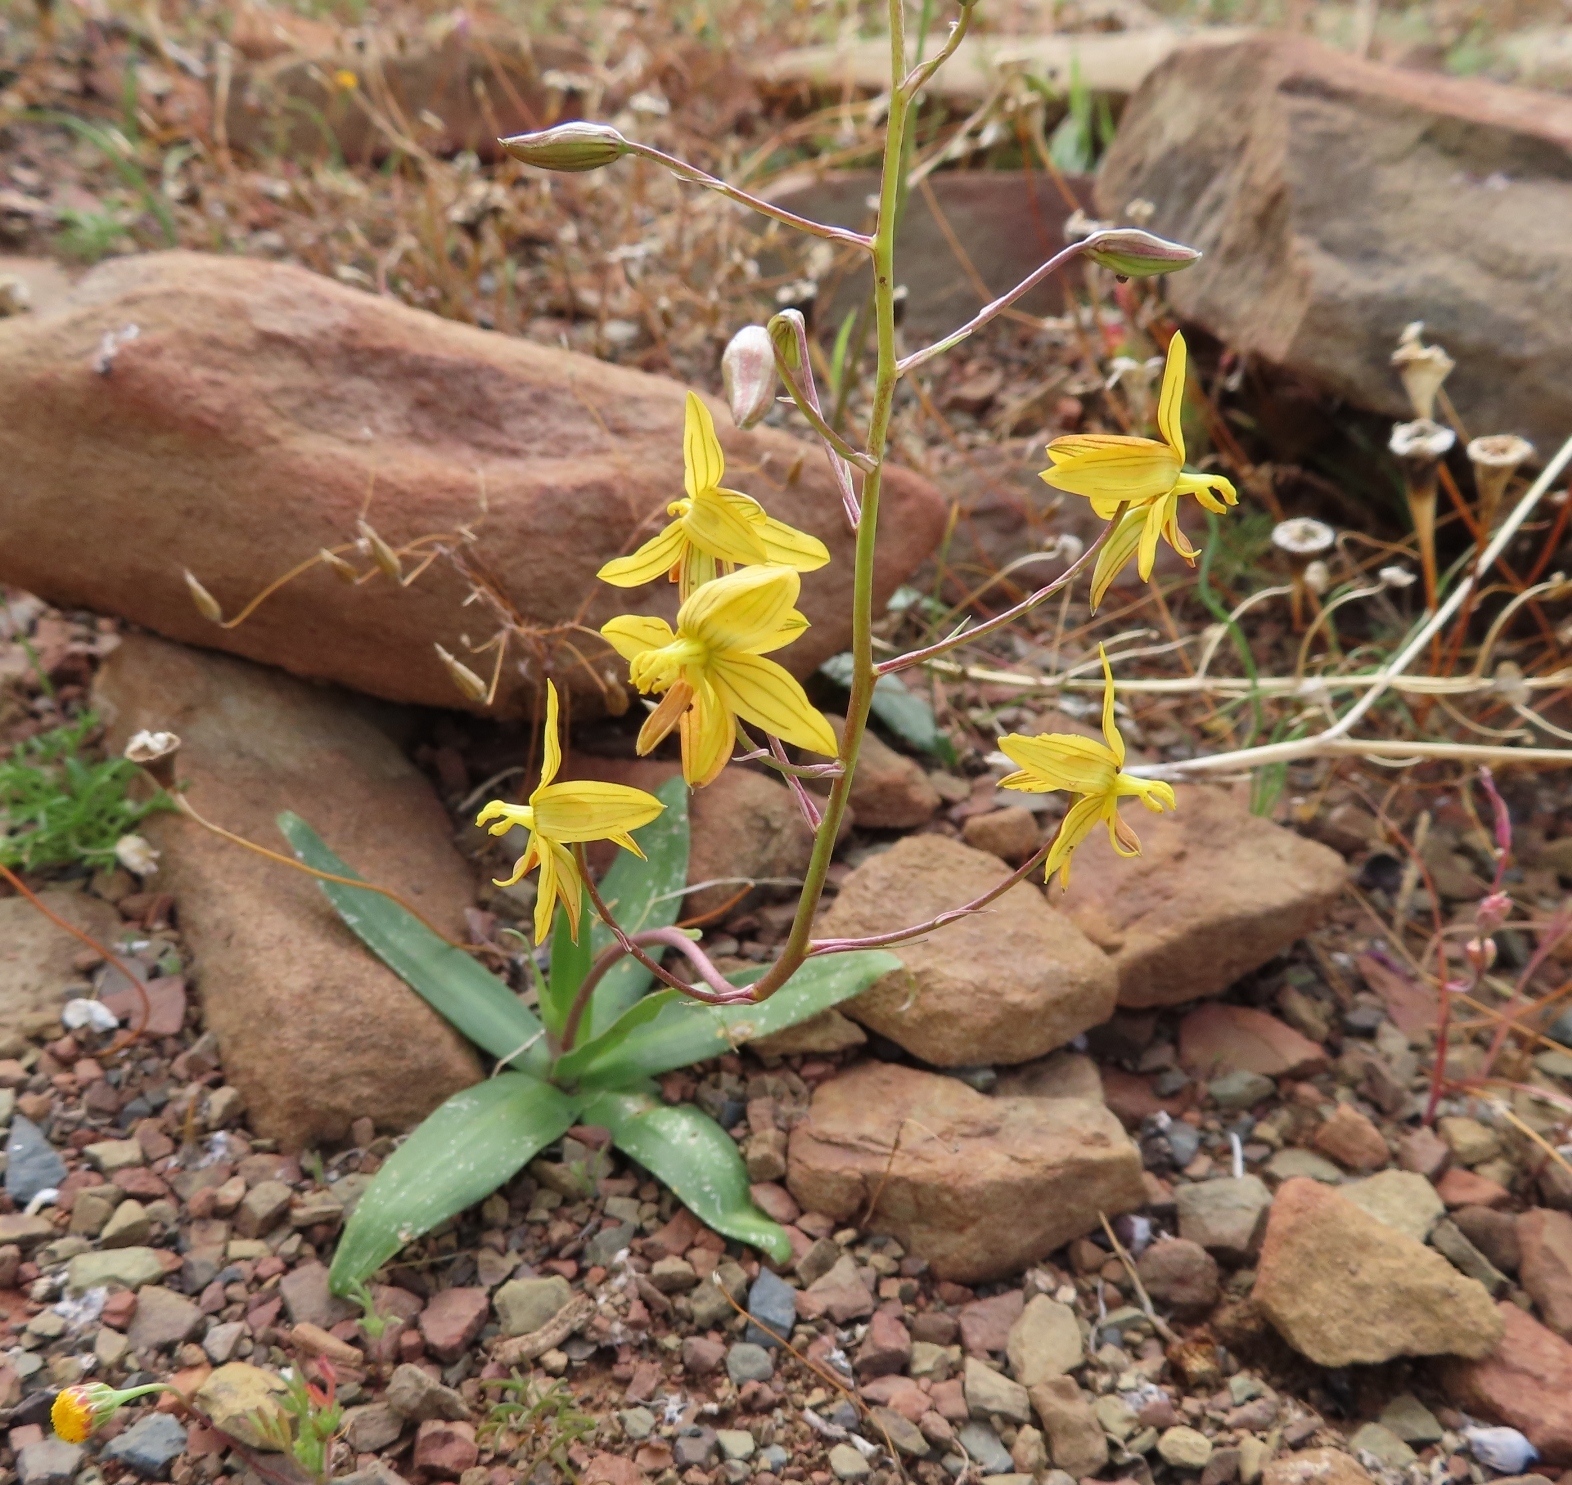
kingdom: Plantae
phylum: Tracheophyta
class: Liliopsida
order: Asparagales
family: Tecophilaeaceae
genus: Cyanella
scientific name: Cyanella lutea
